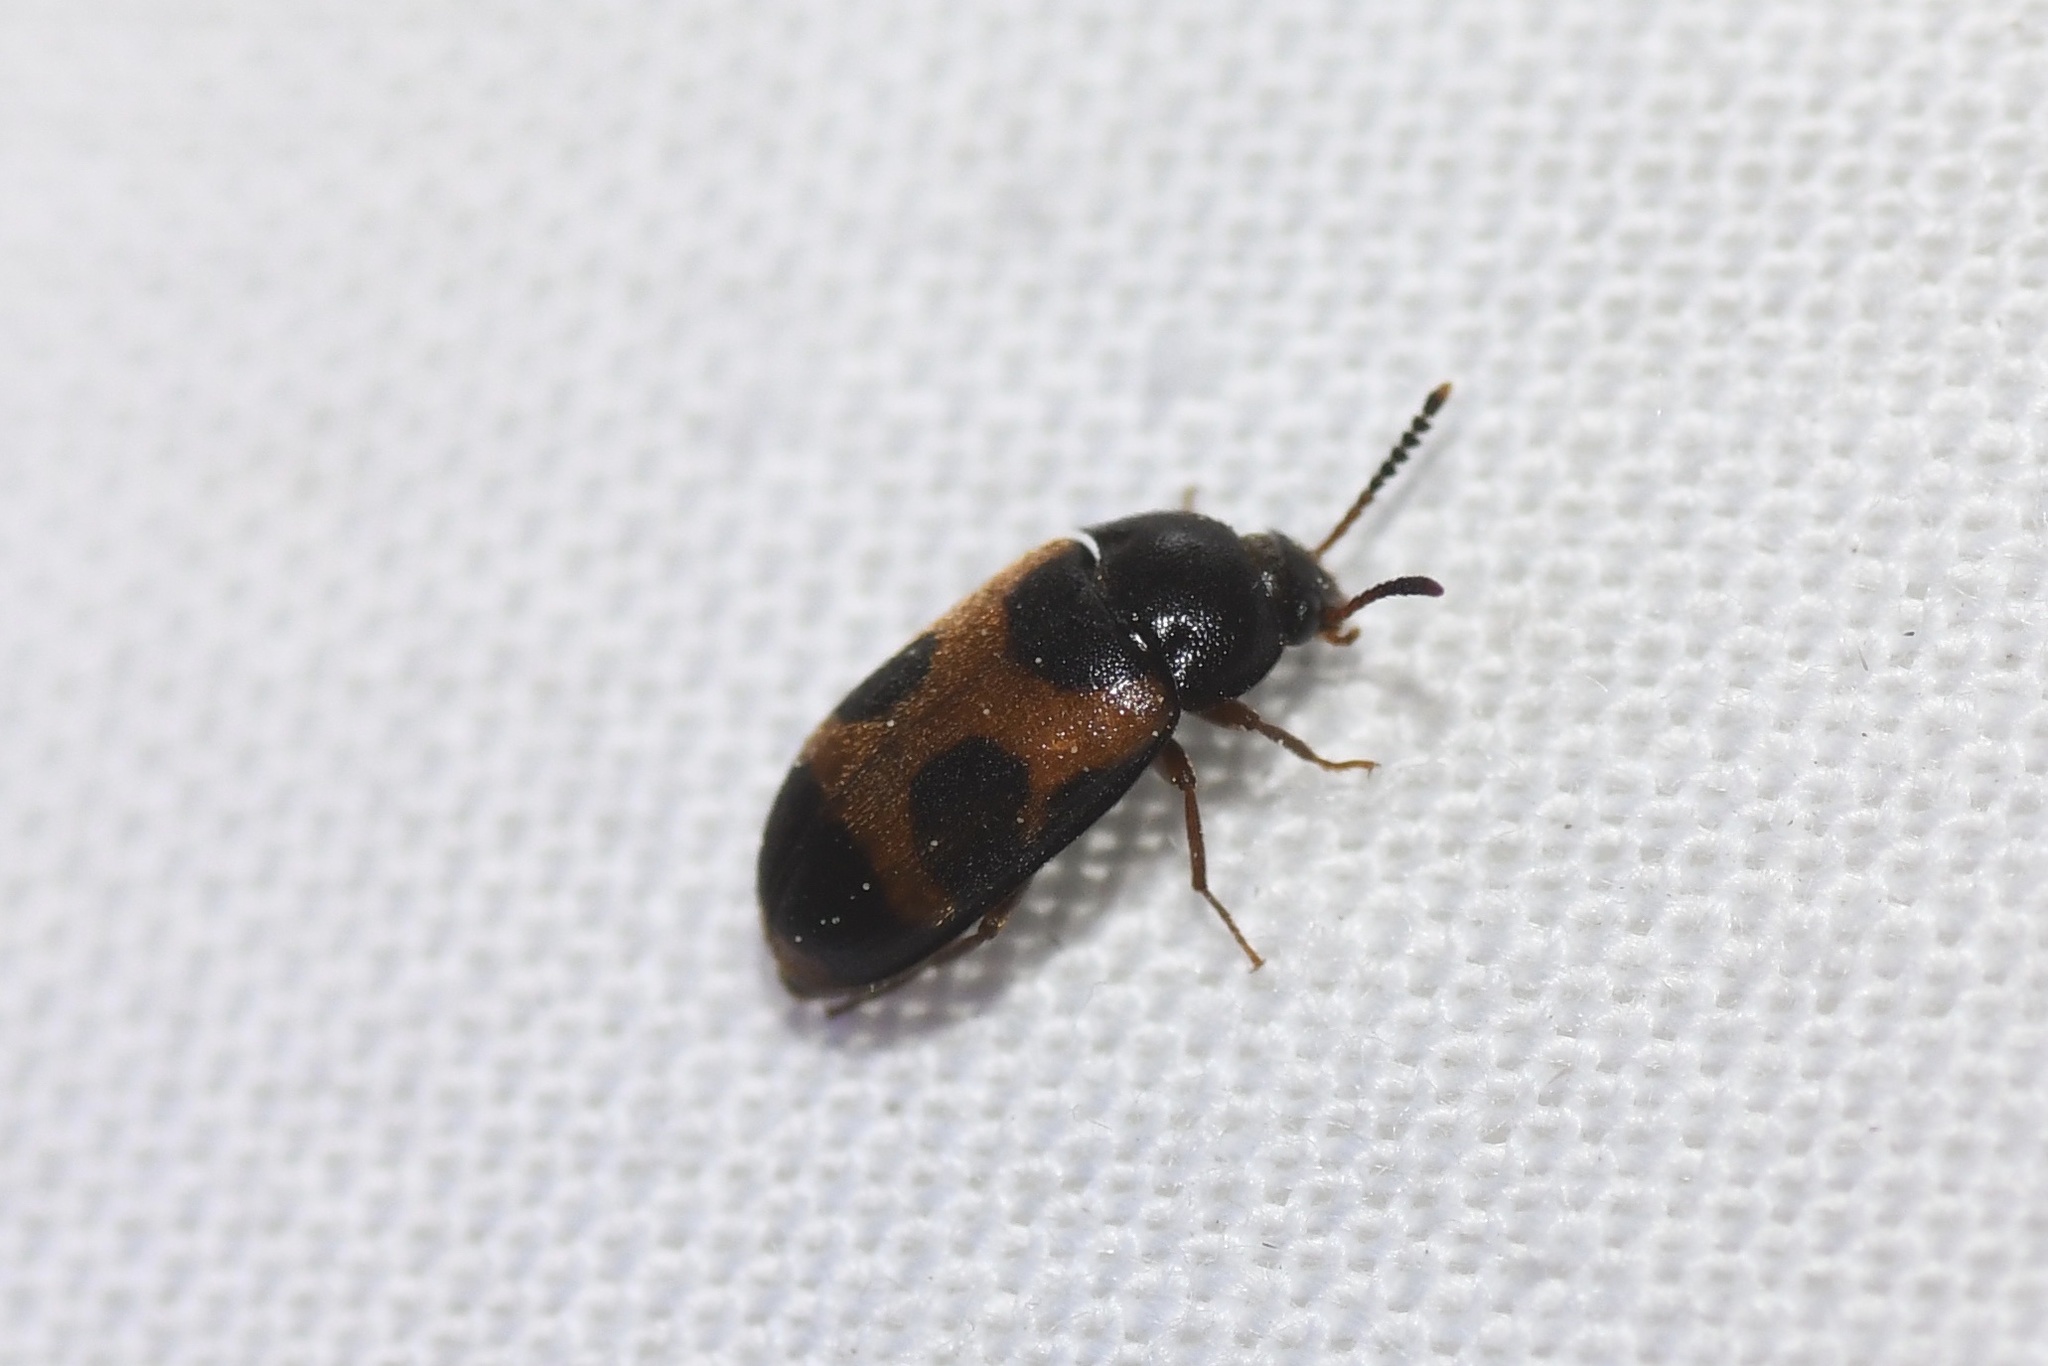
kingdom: Animalia
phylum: Arthropoda
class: Insecta
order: Coleoptera
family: Mycetophagidae
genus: Mycetophagus
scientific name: Mycetophagus punctatus
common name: Hairy fungus beetle
